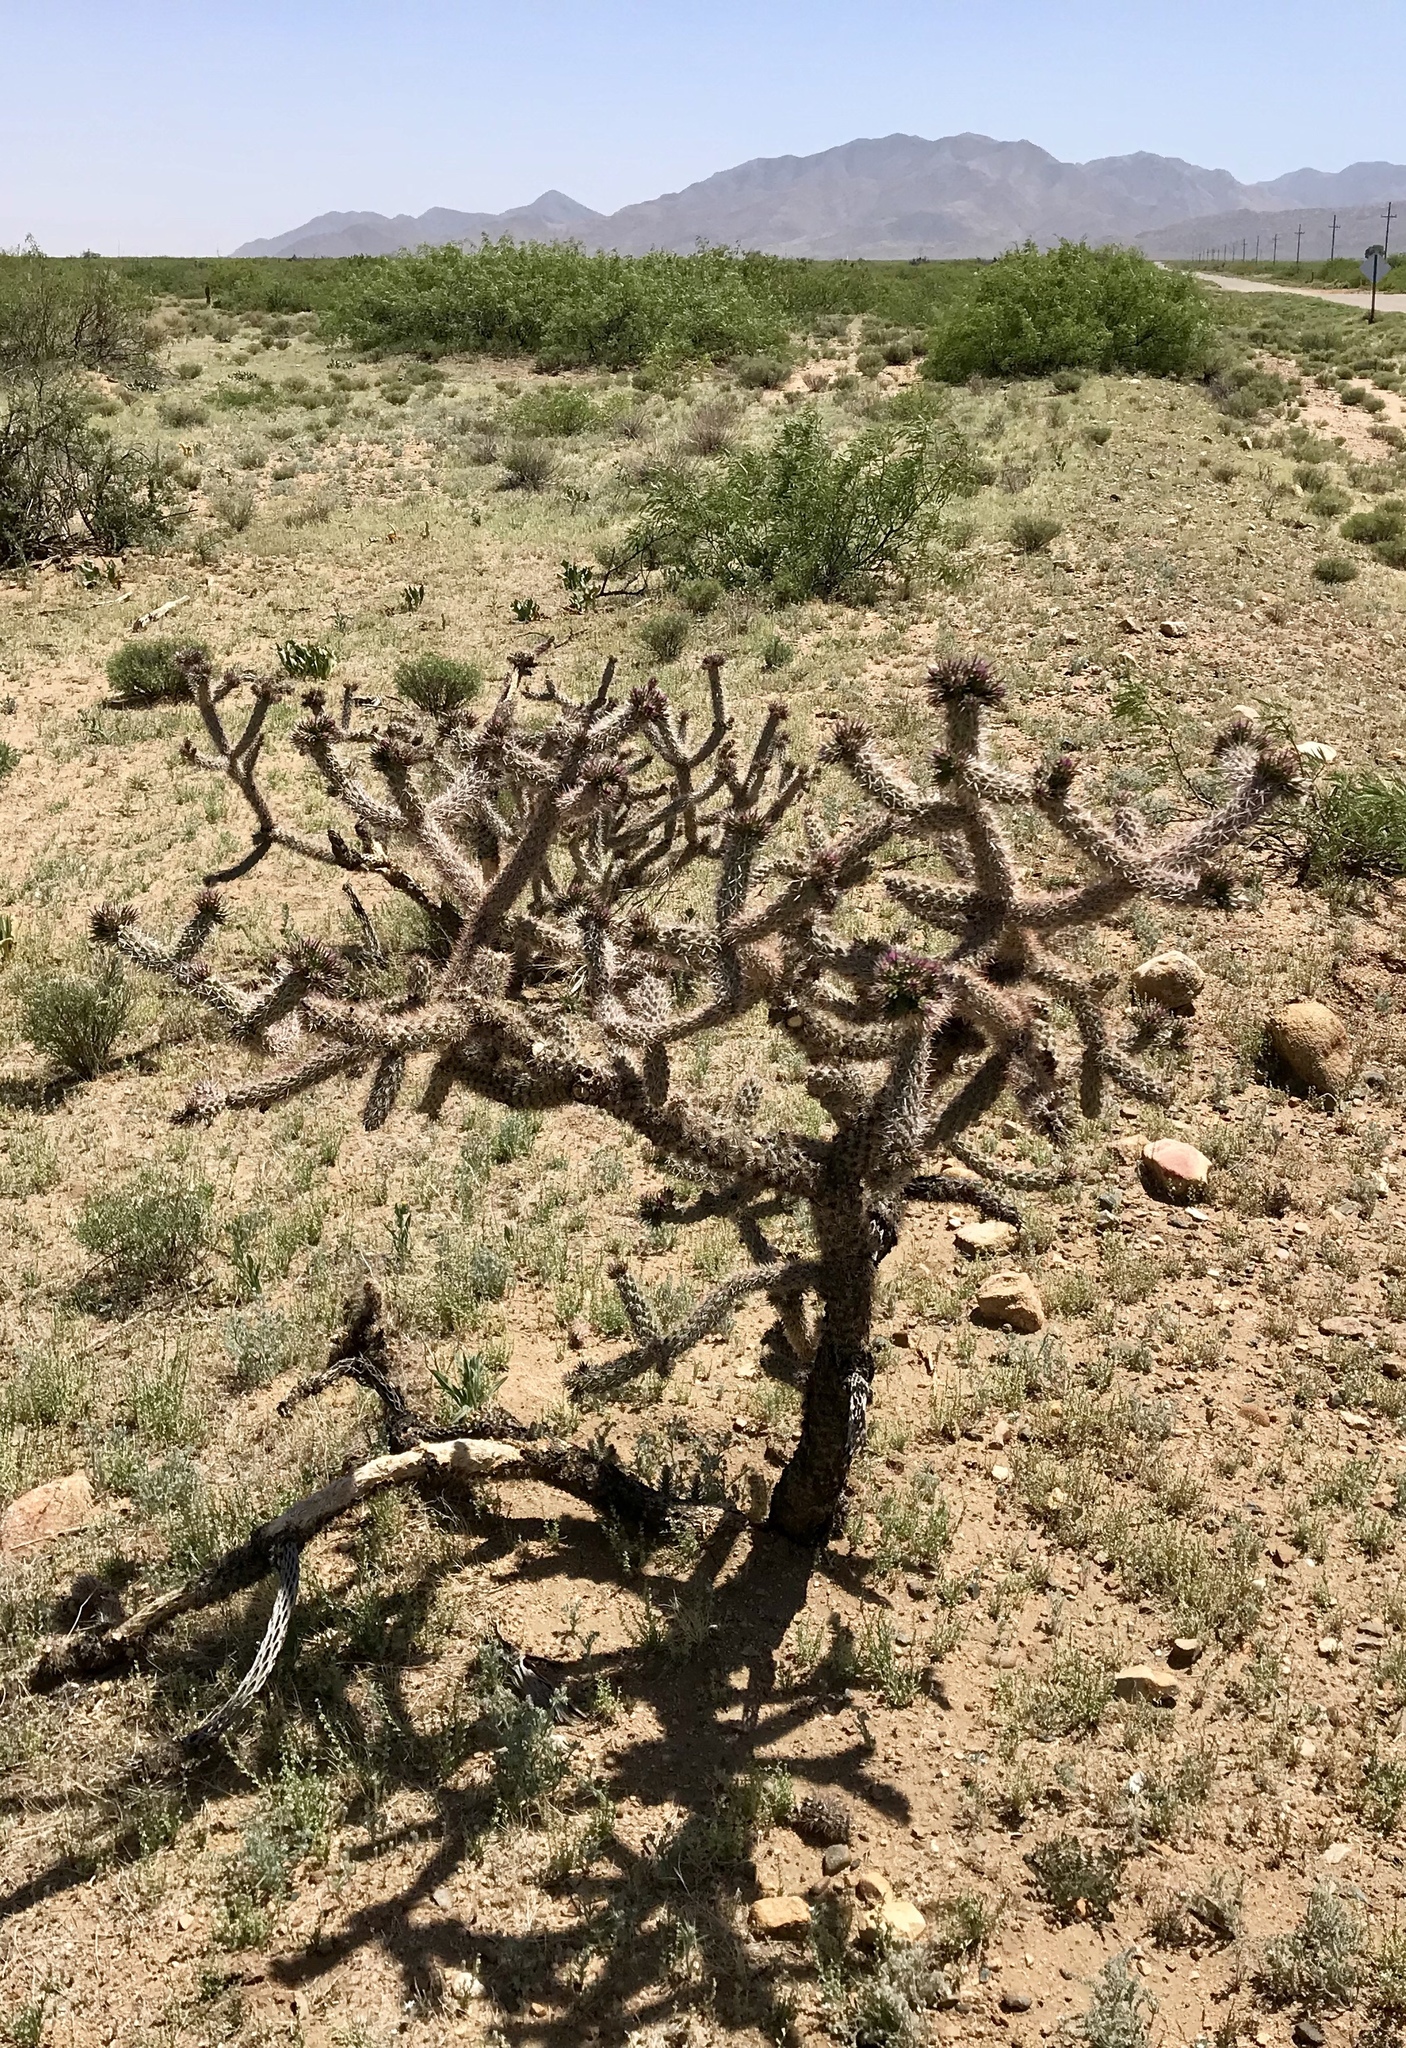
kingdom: Plantae
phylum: Tracheophyta
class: Magnoliopsida
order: Caryophyllales
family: Cactaceae
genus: Cylindropuntia
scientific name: Cylindropuntia imbricata
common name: Candelabrum cactus
